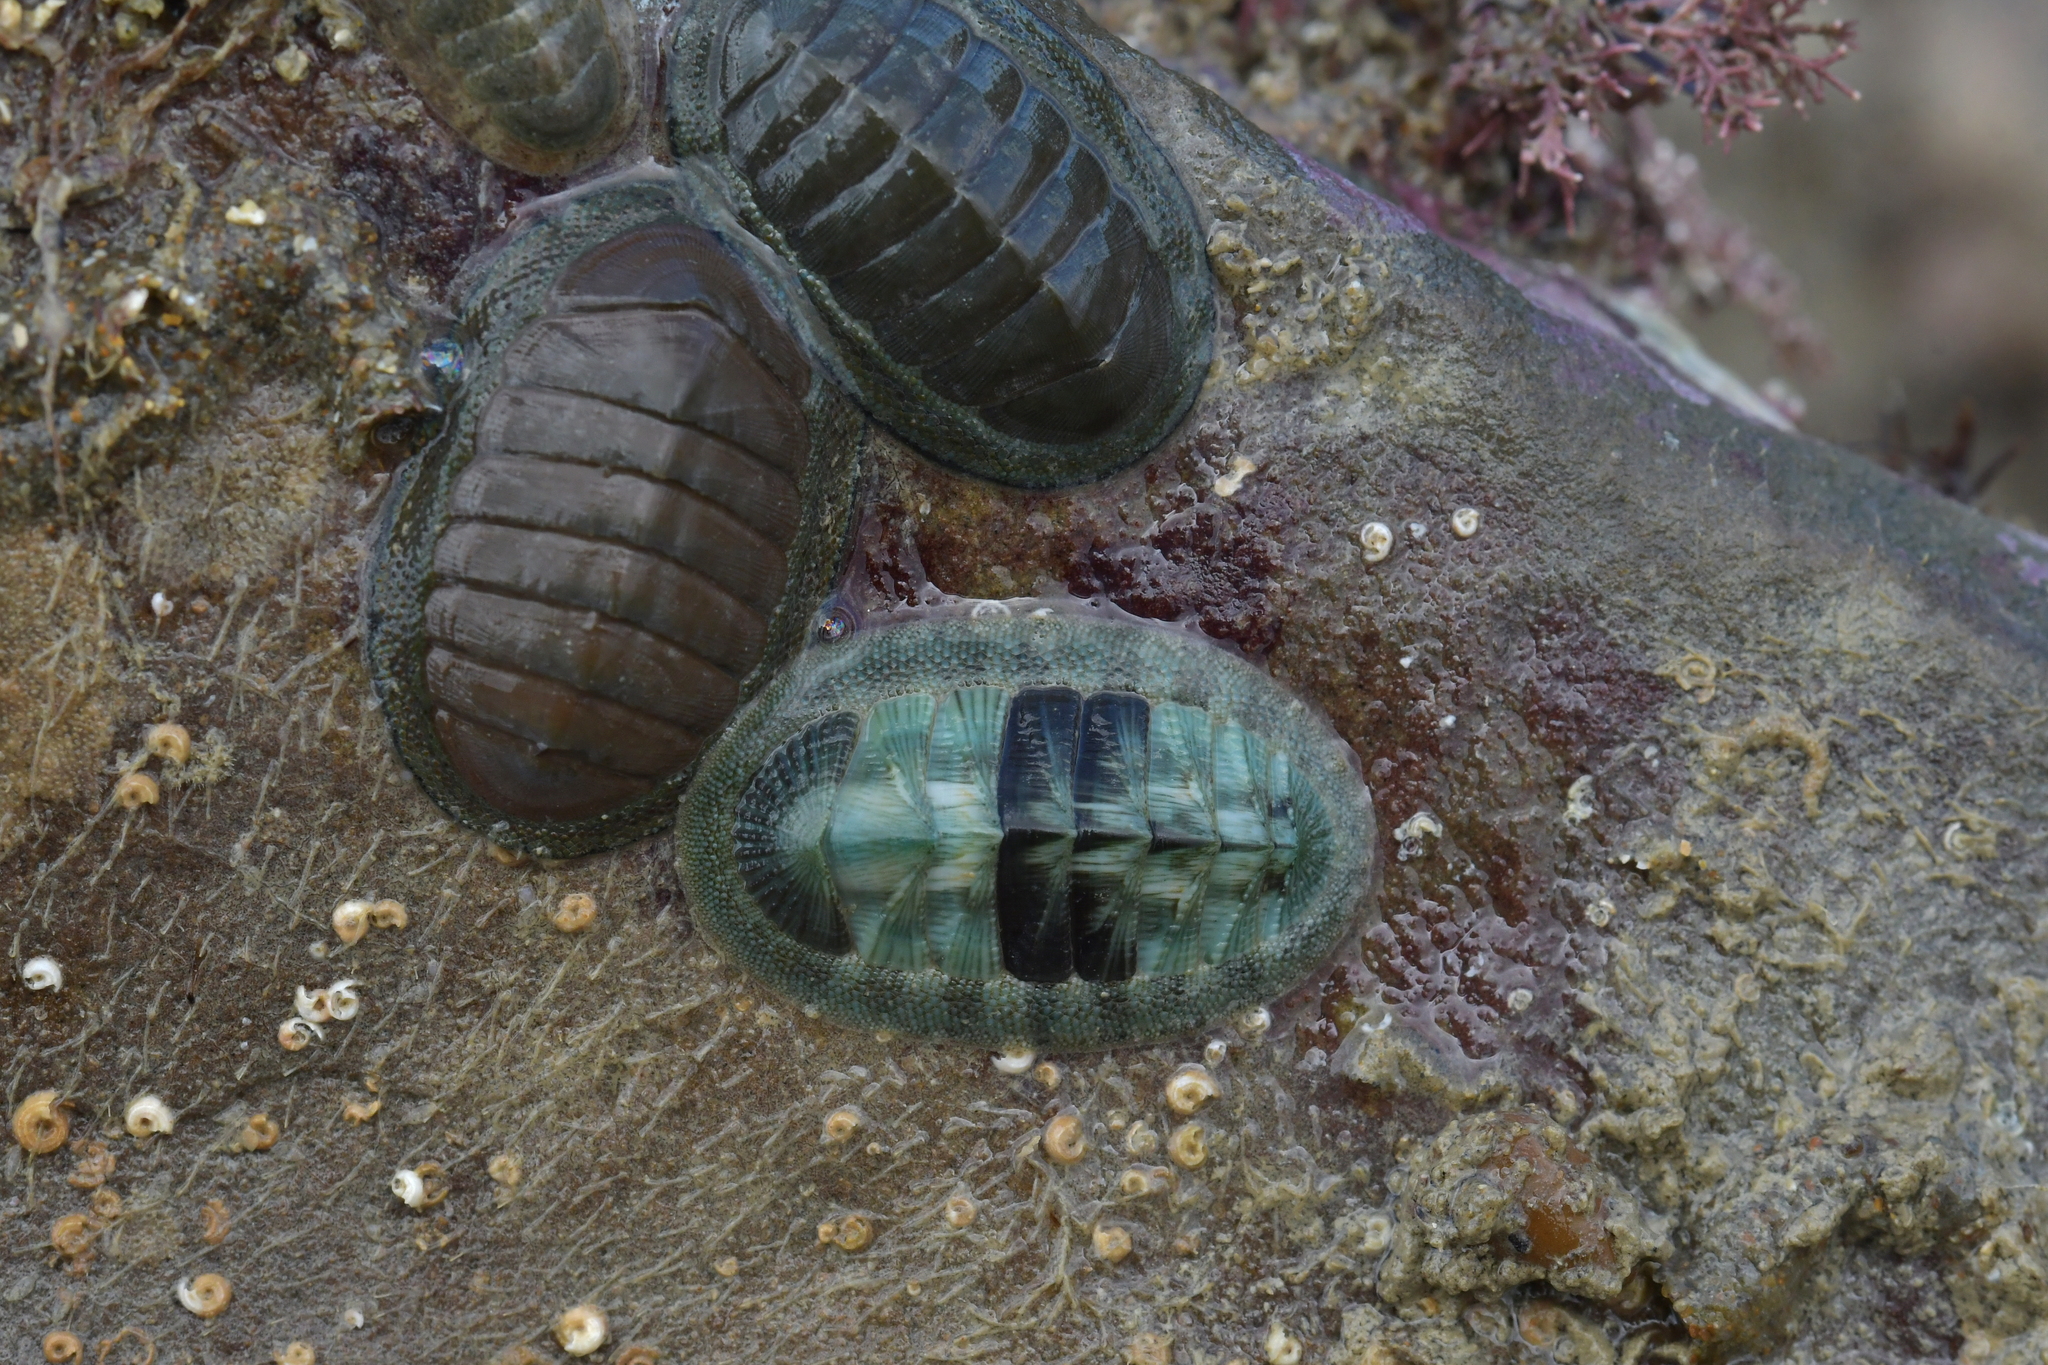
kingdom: Animalia
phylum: Mollusca
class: Polyplacophora
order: Chitonida
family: Chitonidae
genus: Rhyssoplax
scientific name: Rhyssoplax aerea
